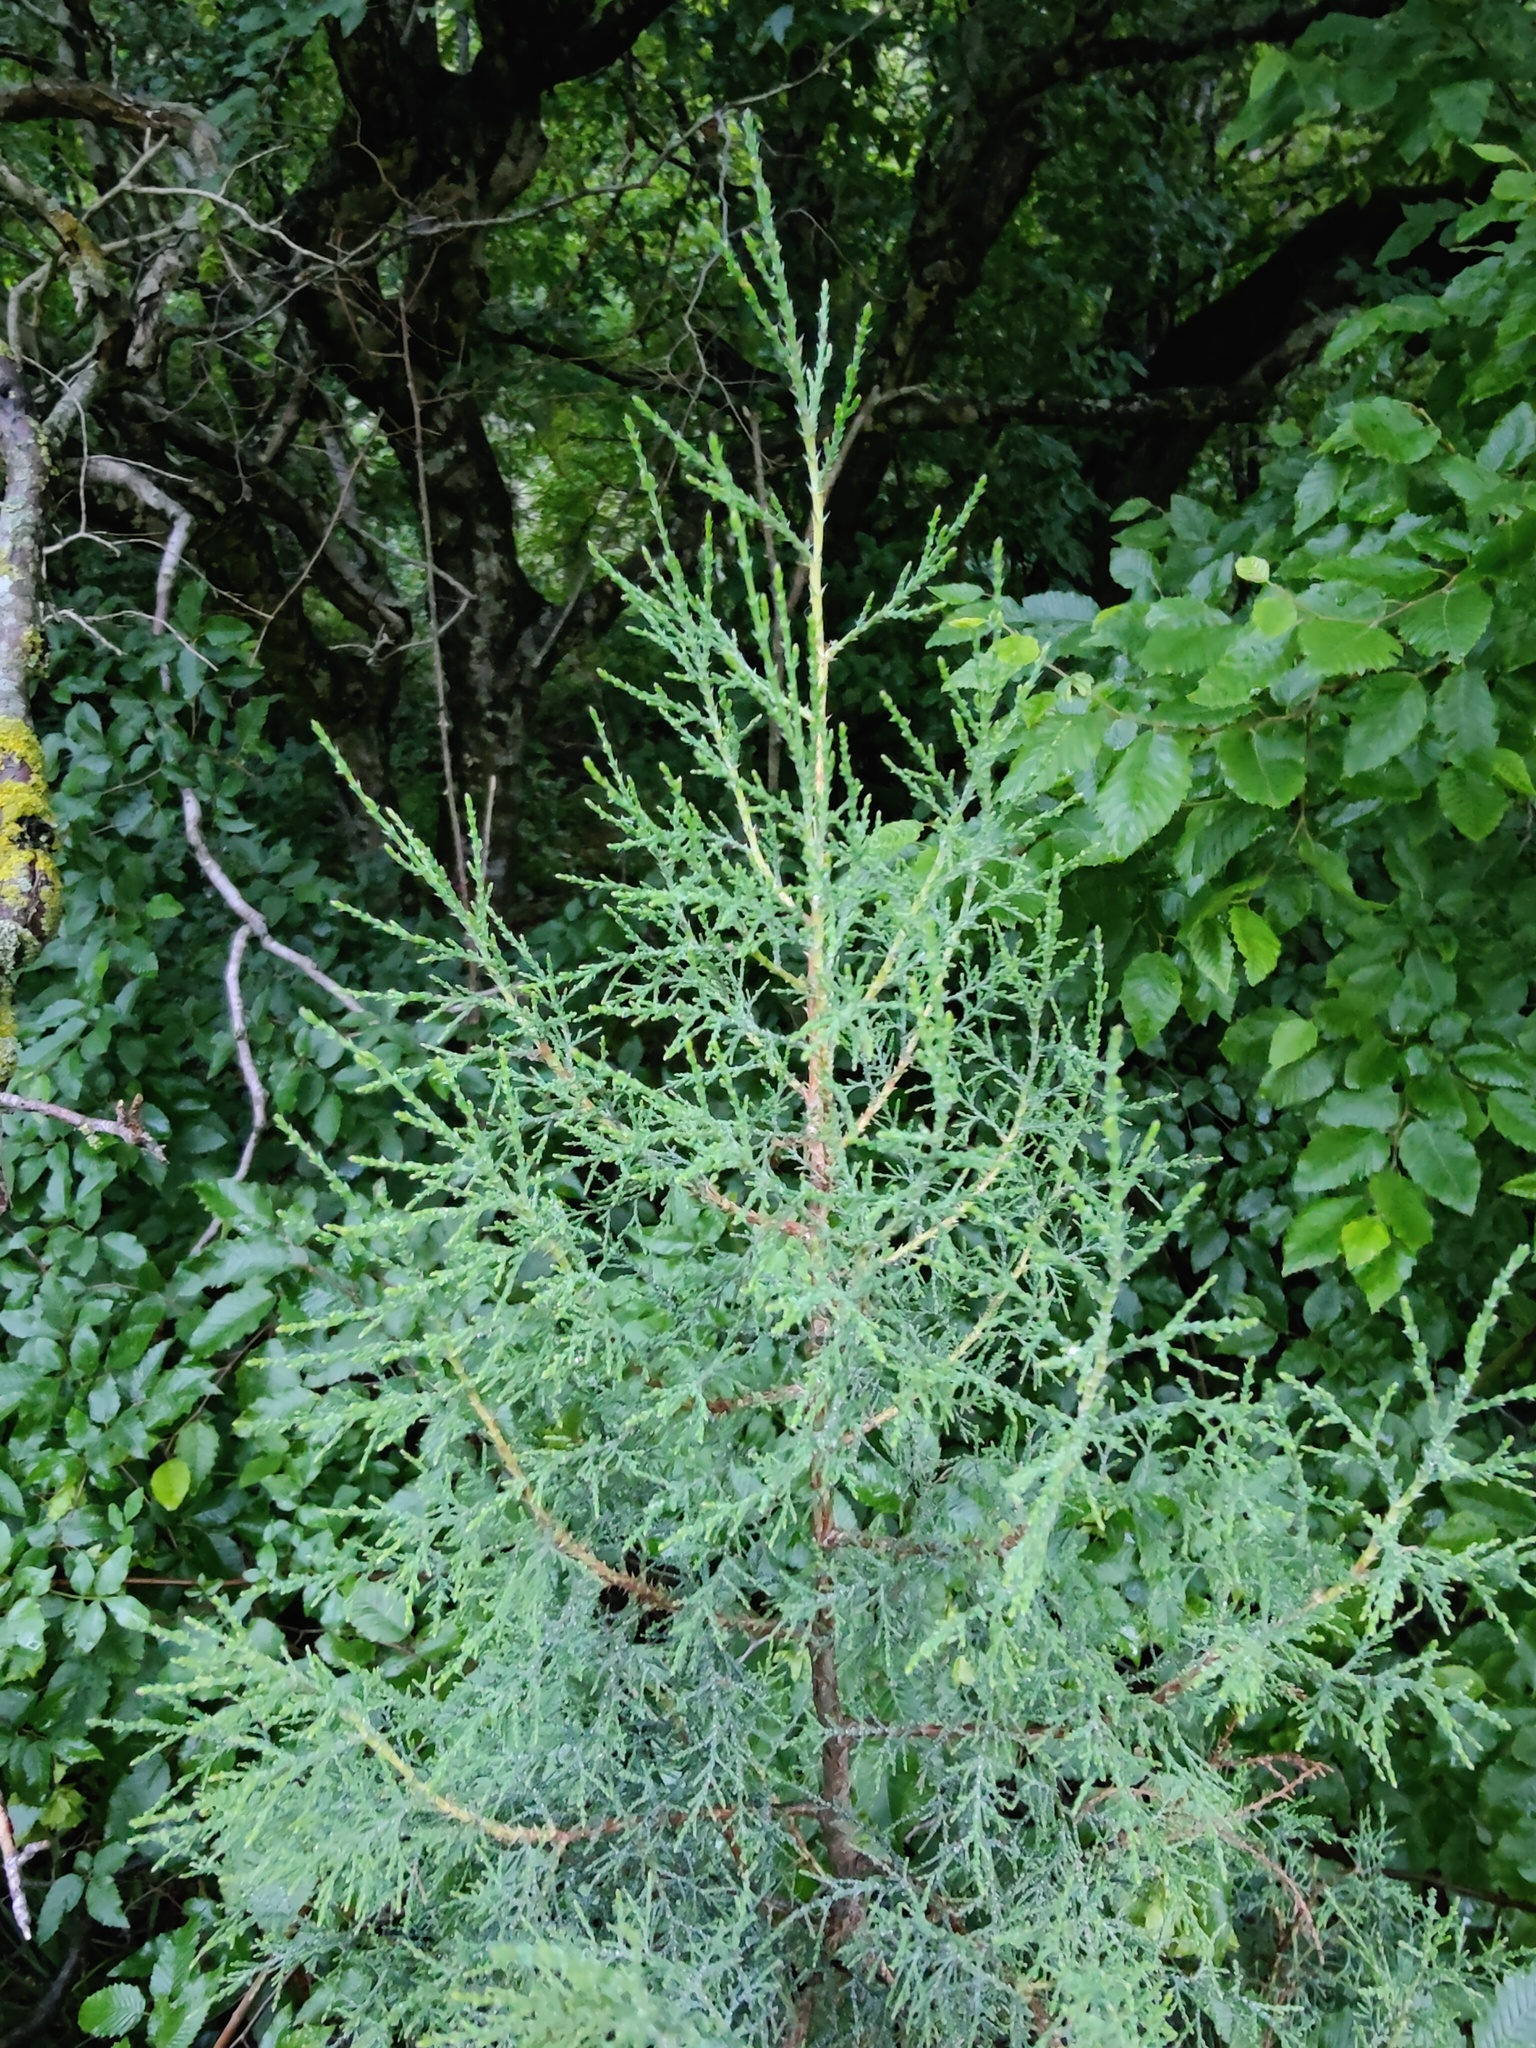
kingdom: Plantae
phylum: Tracheophyta
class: Pinopsida
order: Pinales
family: Cupressaceae
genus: Juniperus
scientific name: Juniperus foetidissima
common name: Stinking juniper
